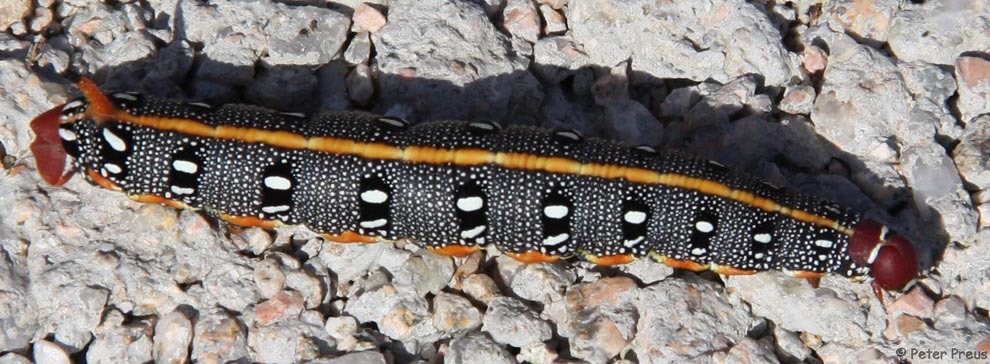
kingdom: Animalia
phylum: Arthropoda
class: Insecta
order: Lepidoptera
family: Sphingidae
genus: Hyles
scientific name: Hyles dahlii
